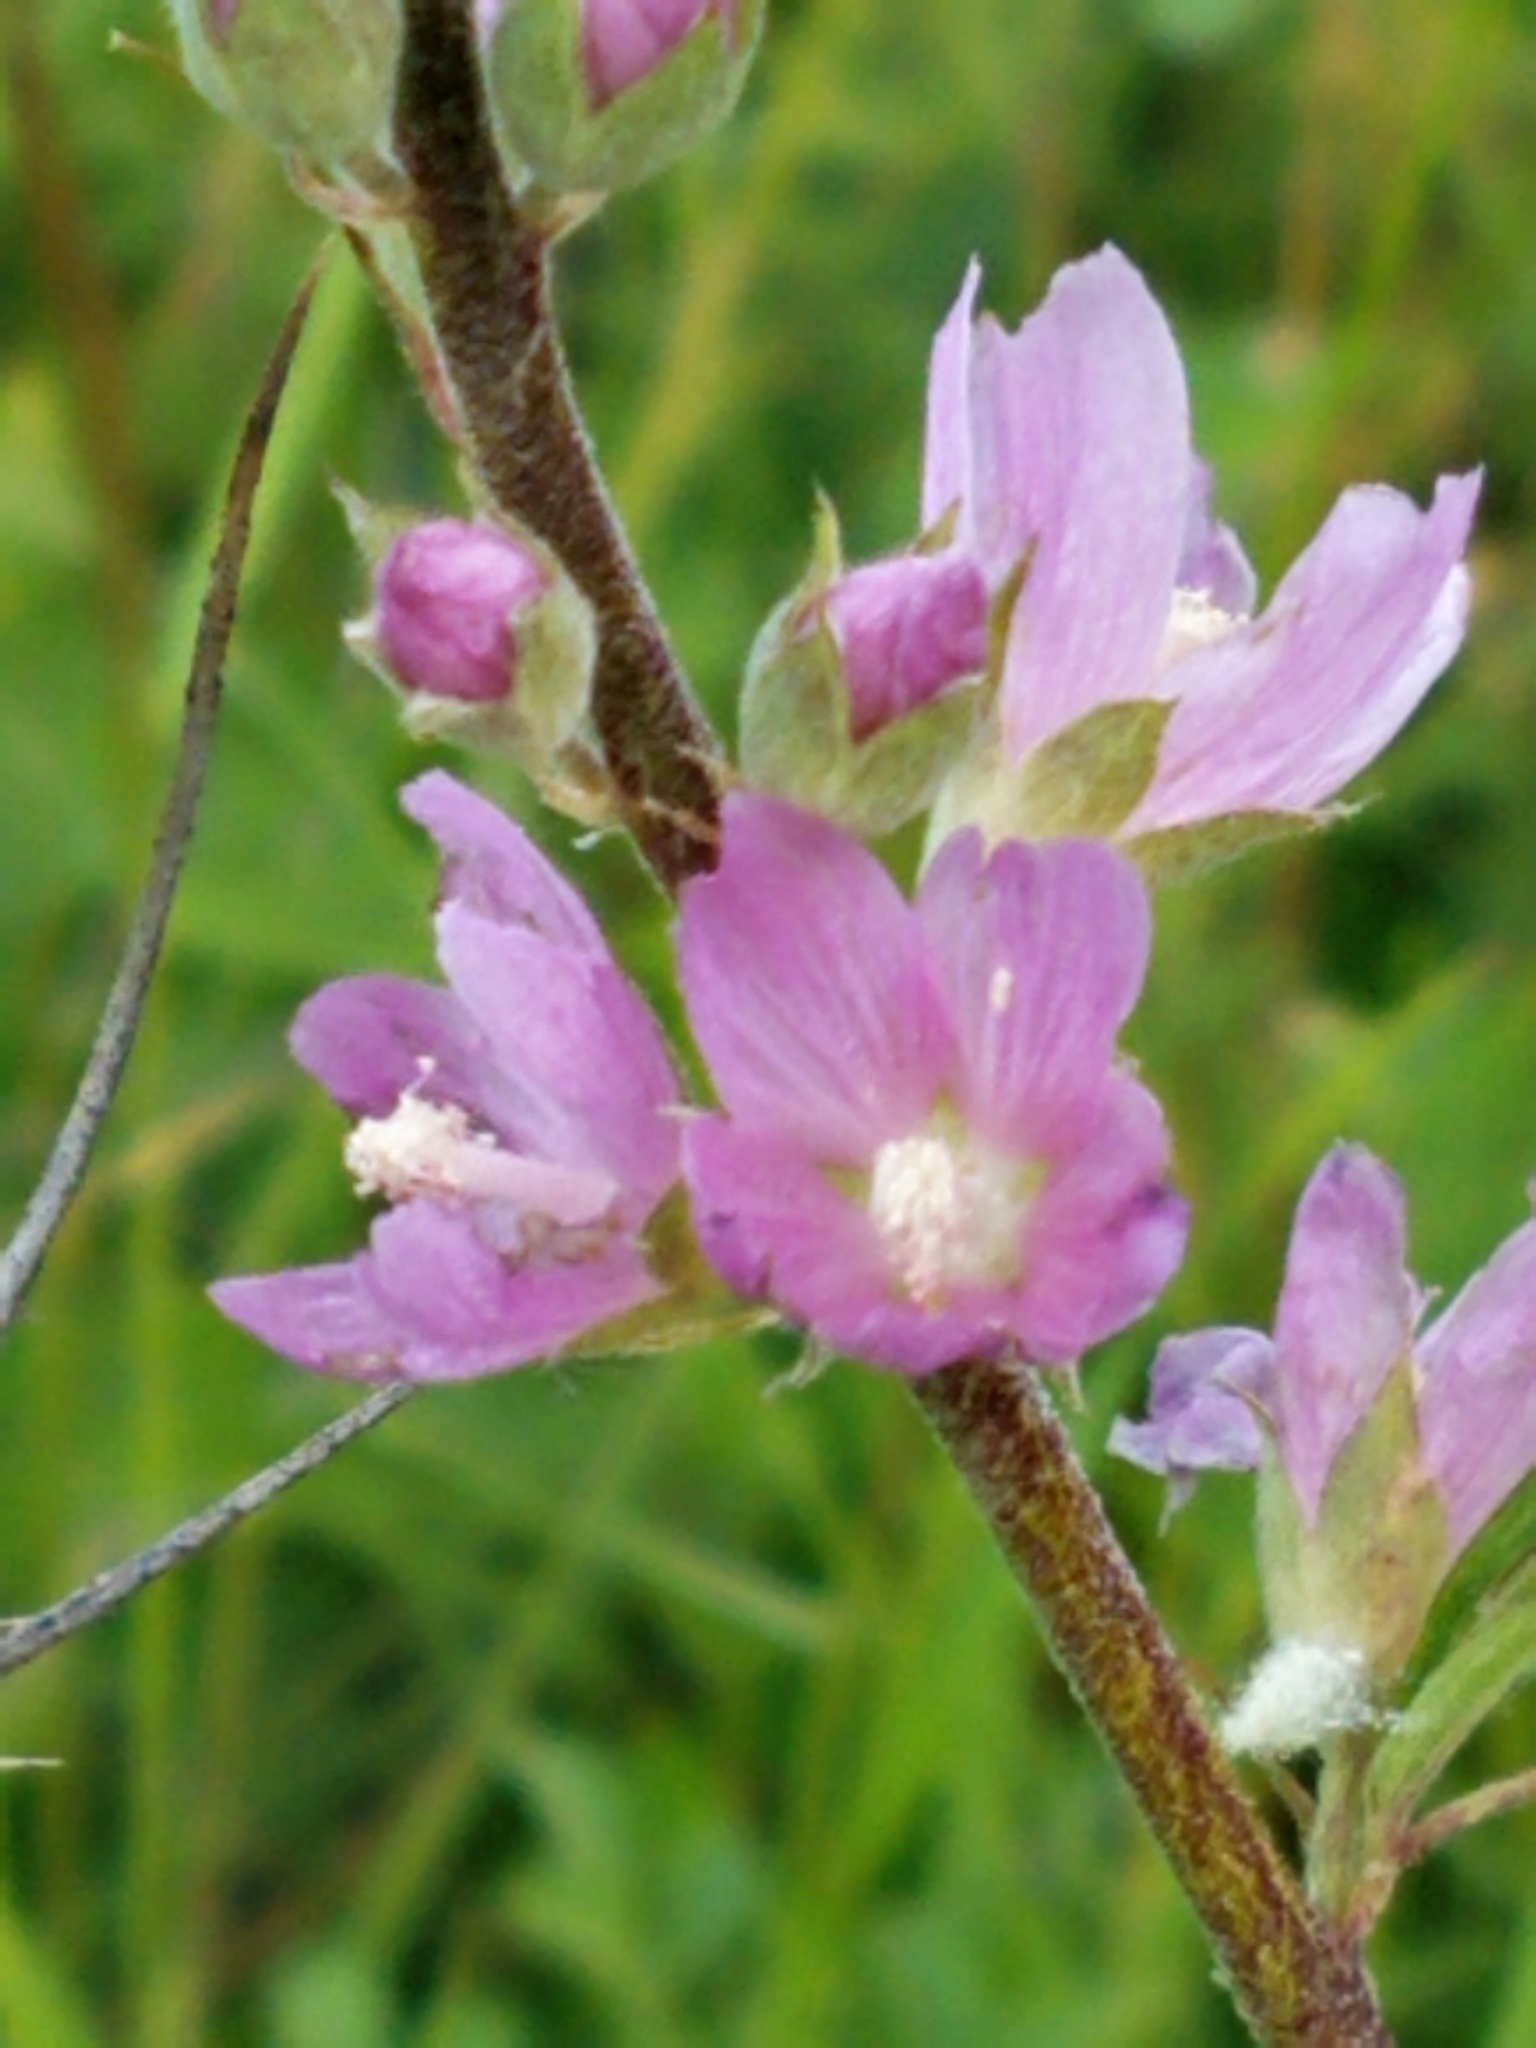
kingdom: Plantae
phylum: Tracheophyta
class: Magnoliopsida
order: Malvales
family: Malvaceae
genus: Sidalcea
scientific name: Sidalcea oregana
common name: Oregon checker-mallow
